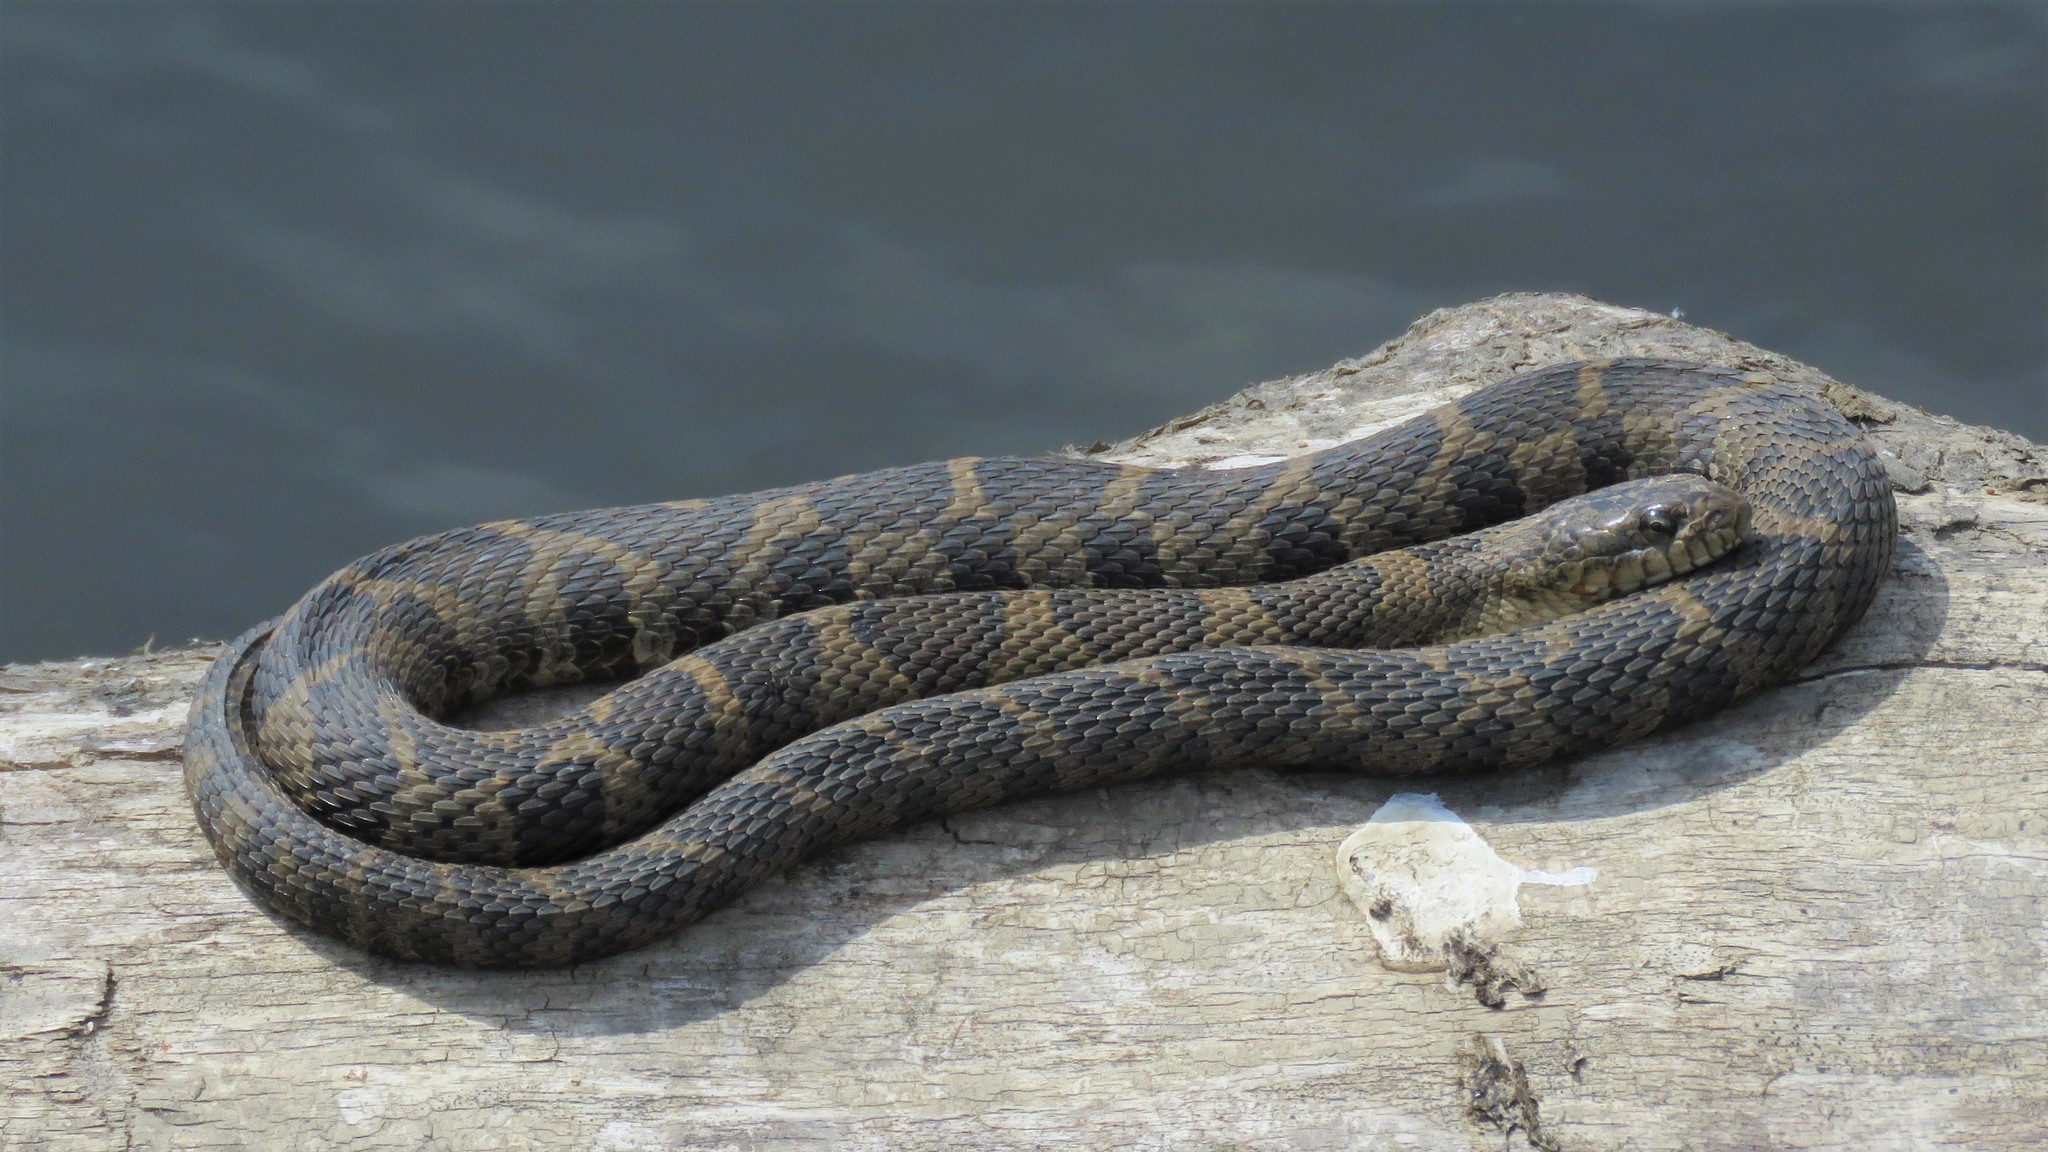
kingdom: Animalia
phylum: Chordata
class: Squamata
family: Colubridae
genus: Nerodia
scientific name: Nerodia sipedon
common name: Northern water snake
